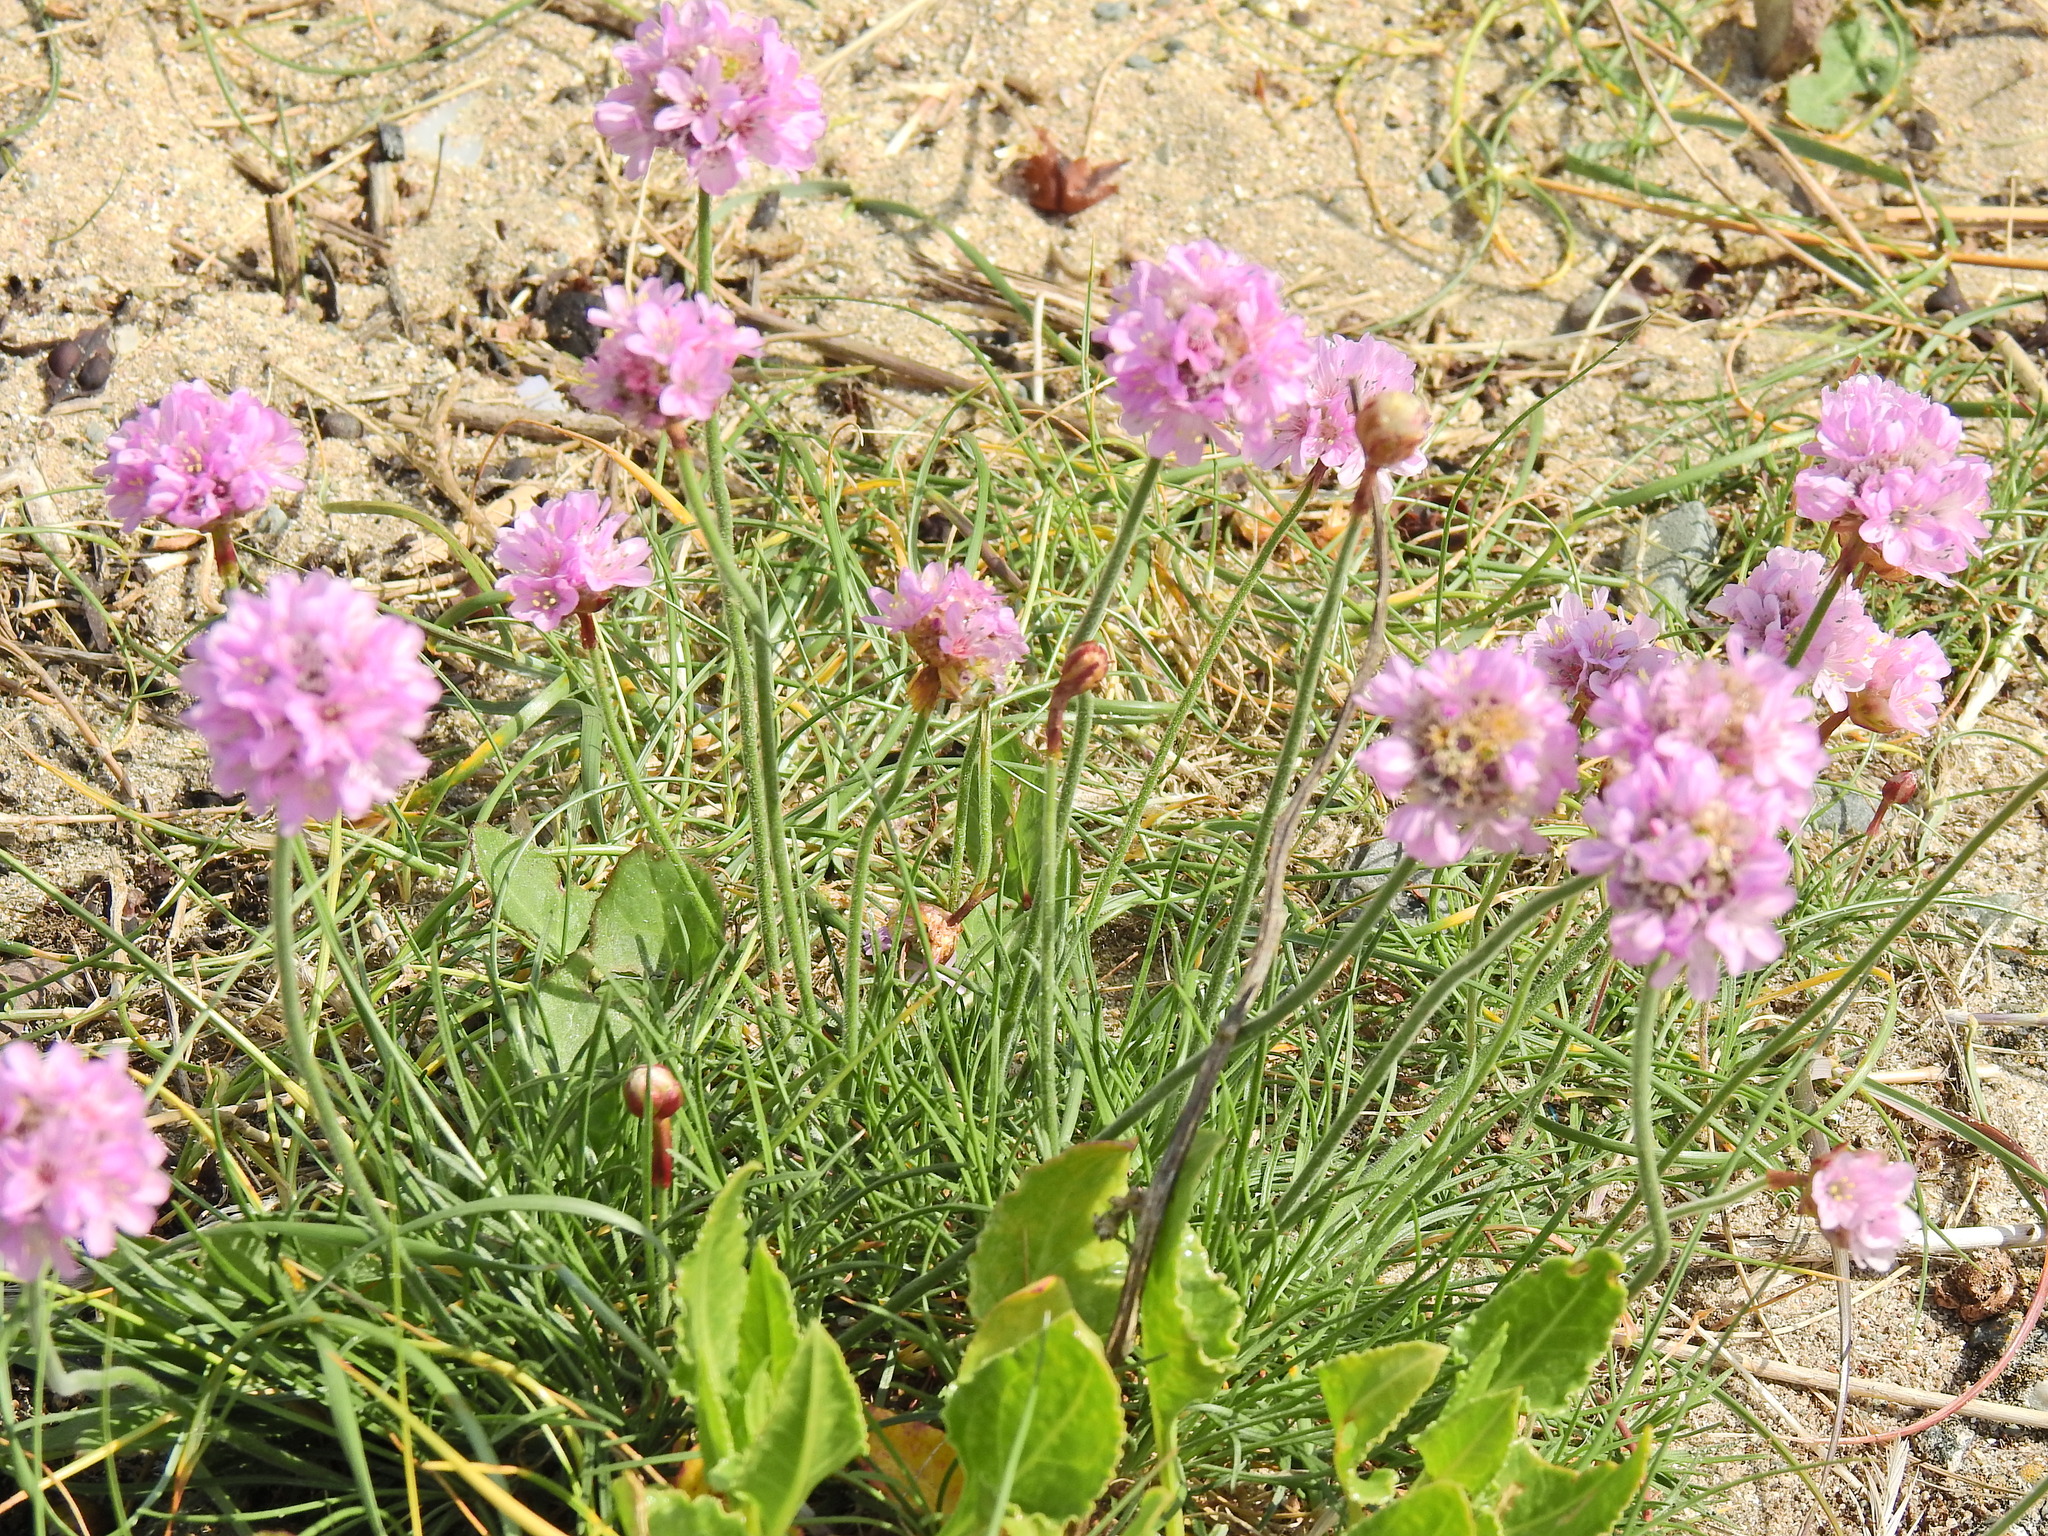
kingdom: Plantae
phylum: Tracheophyta
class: Magnoliopsida
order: Caryophyllales
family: Plumbaginaceae
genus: Armeria
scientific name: Armeria maritima
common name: Thrift
